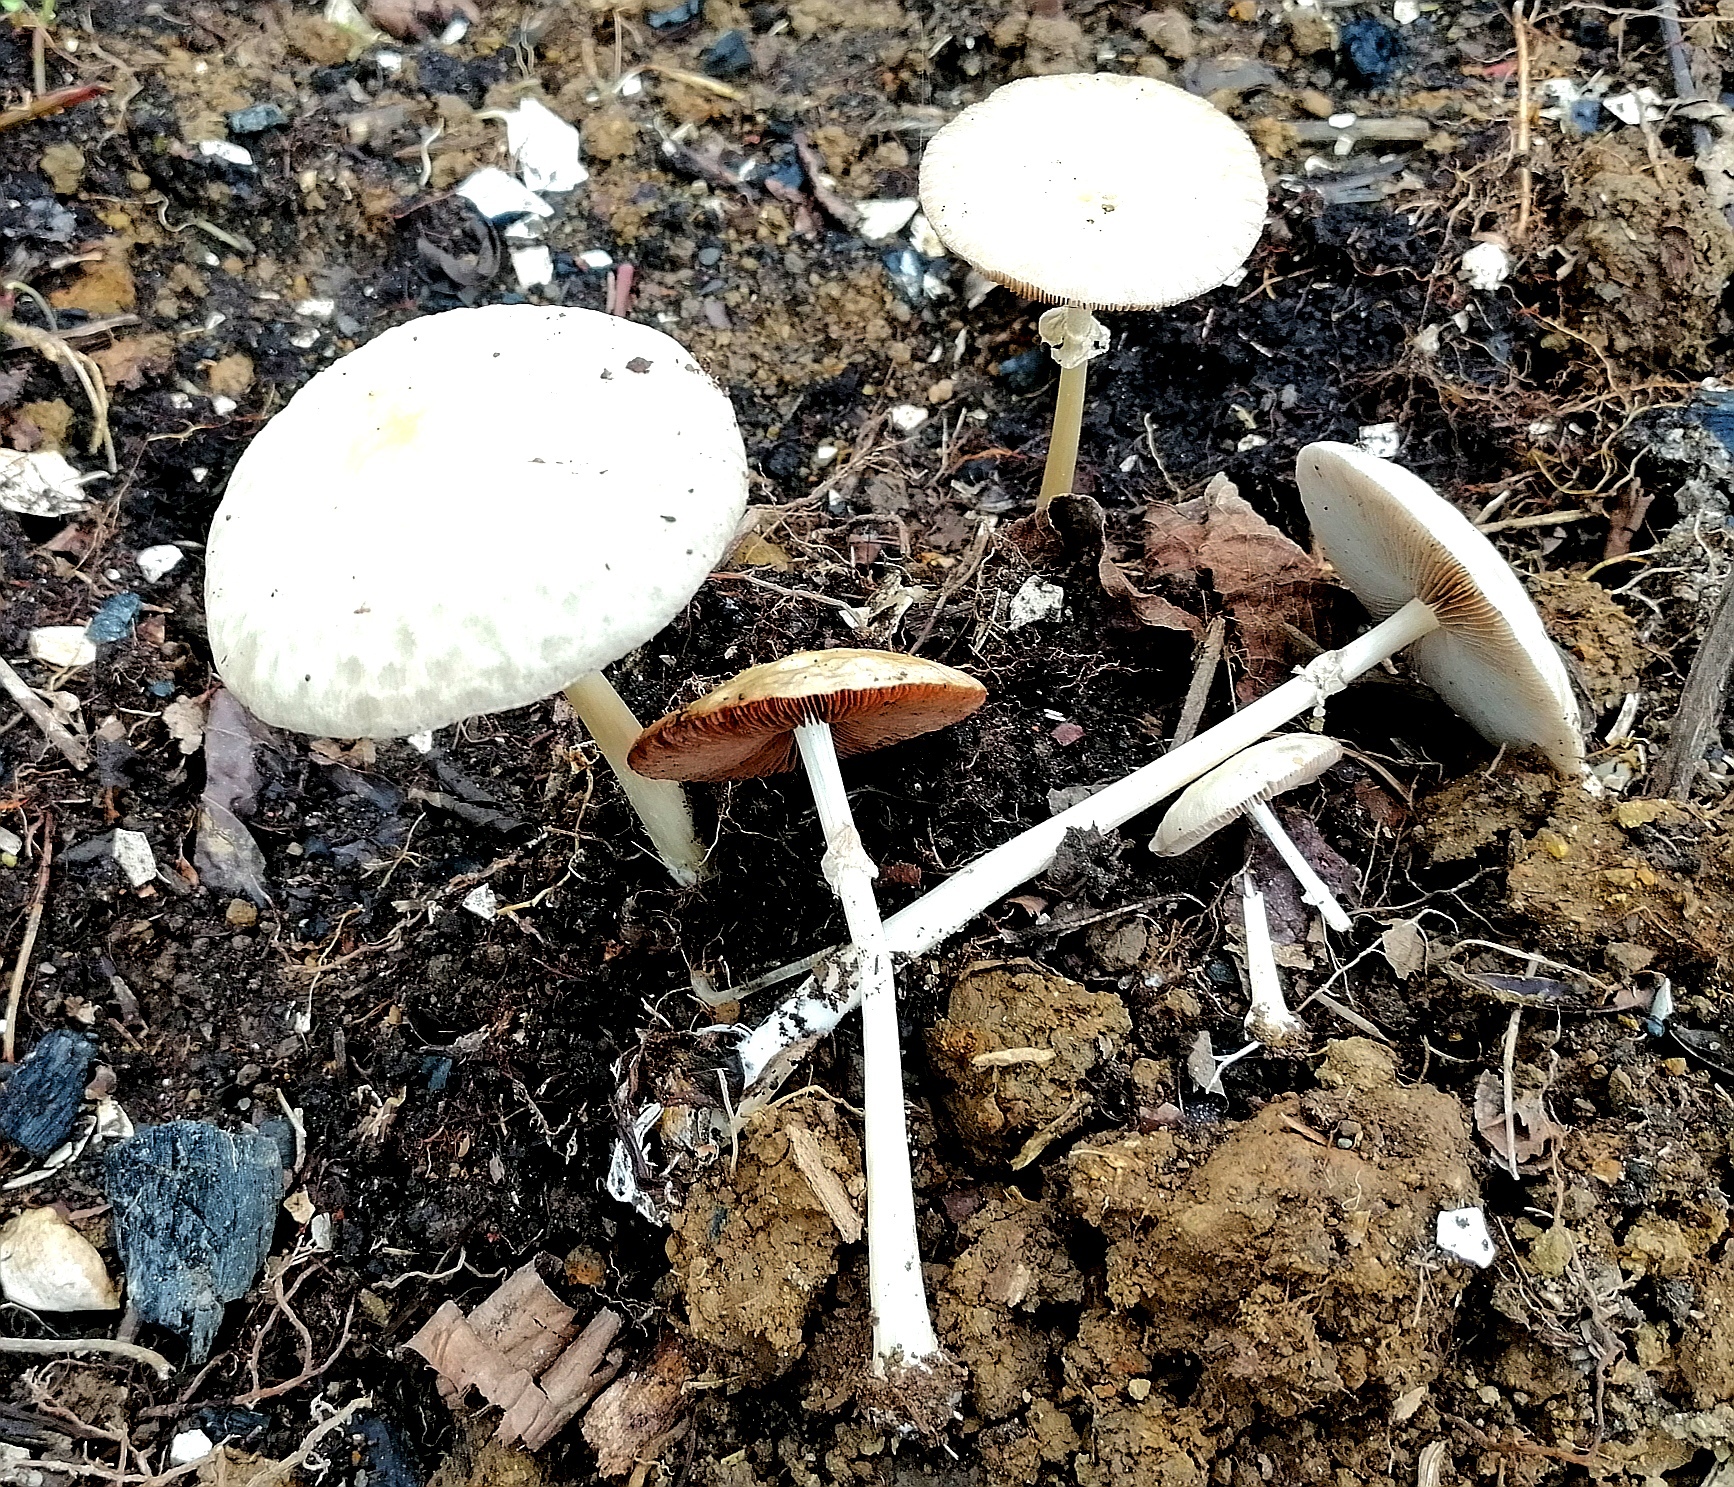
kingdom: Fungi
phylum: Basidiomycota
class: Agaricomycetes
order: Agaricales
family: Strophariaceae
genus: Agrocybe
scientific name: Agrocybe rivulosa
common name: Wrinkled fieldcap
